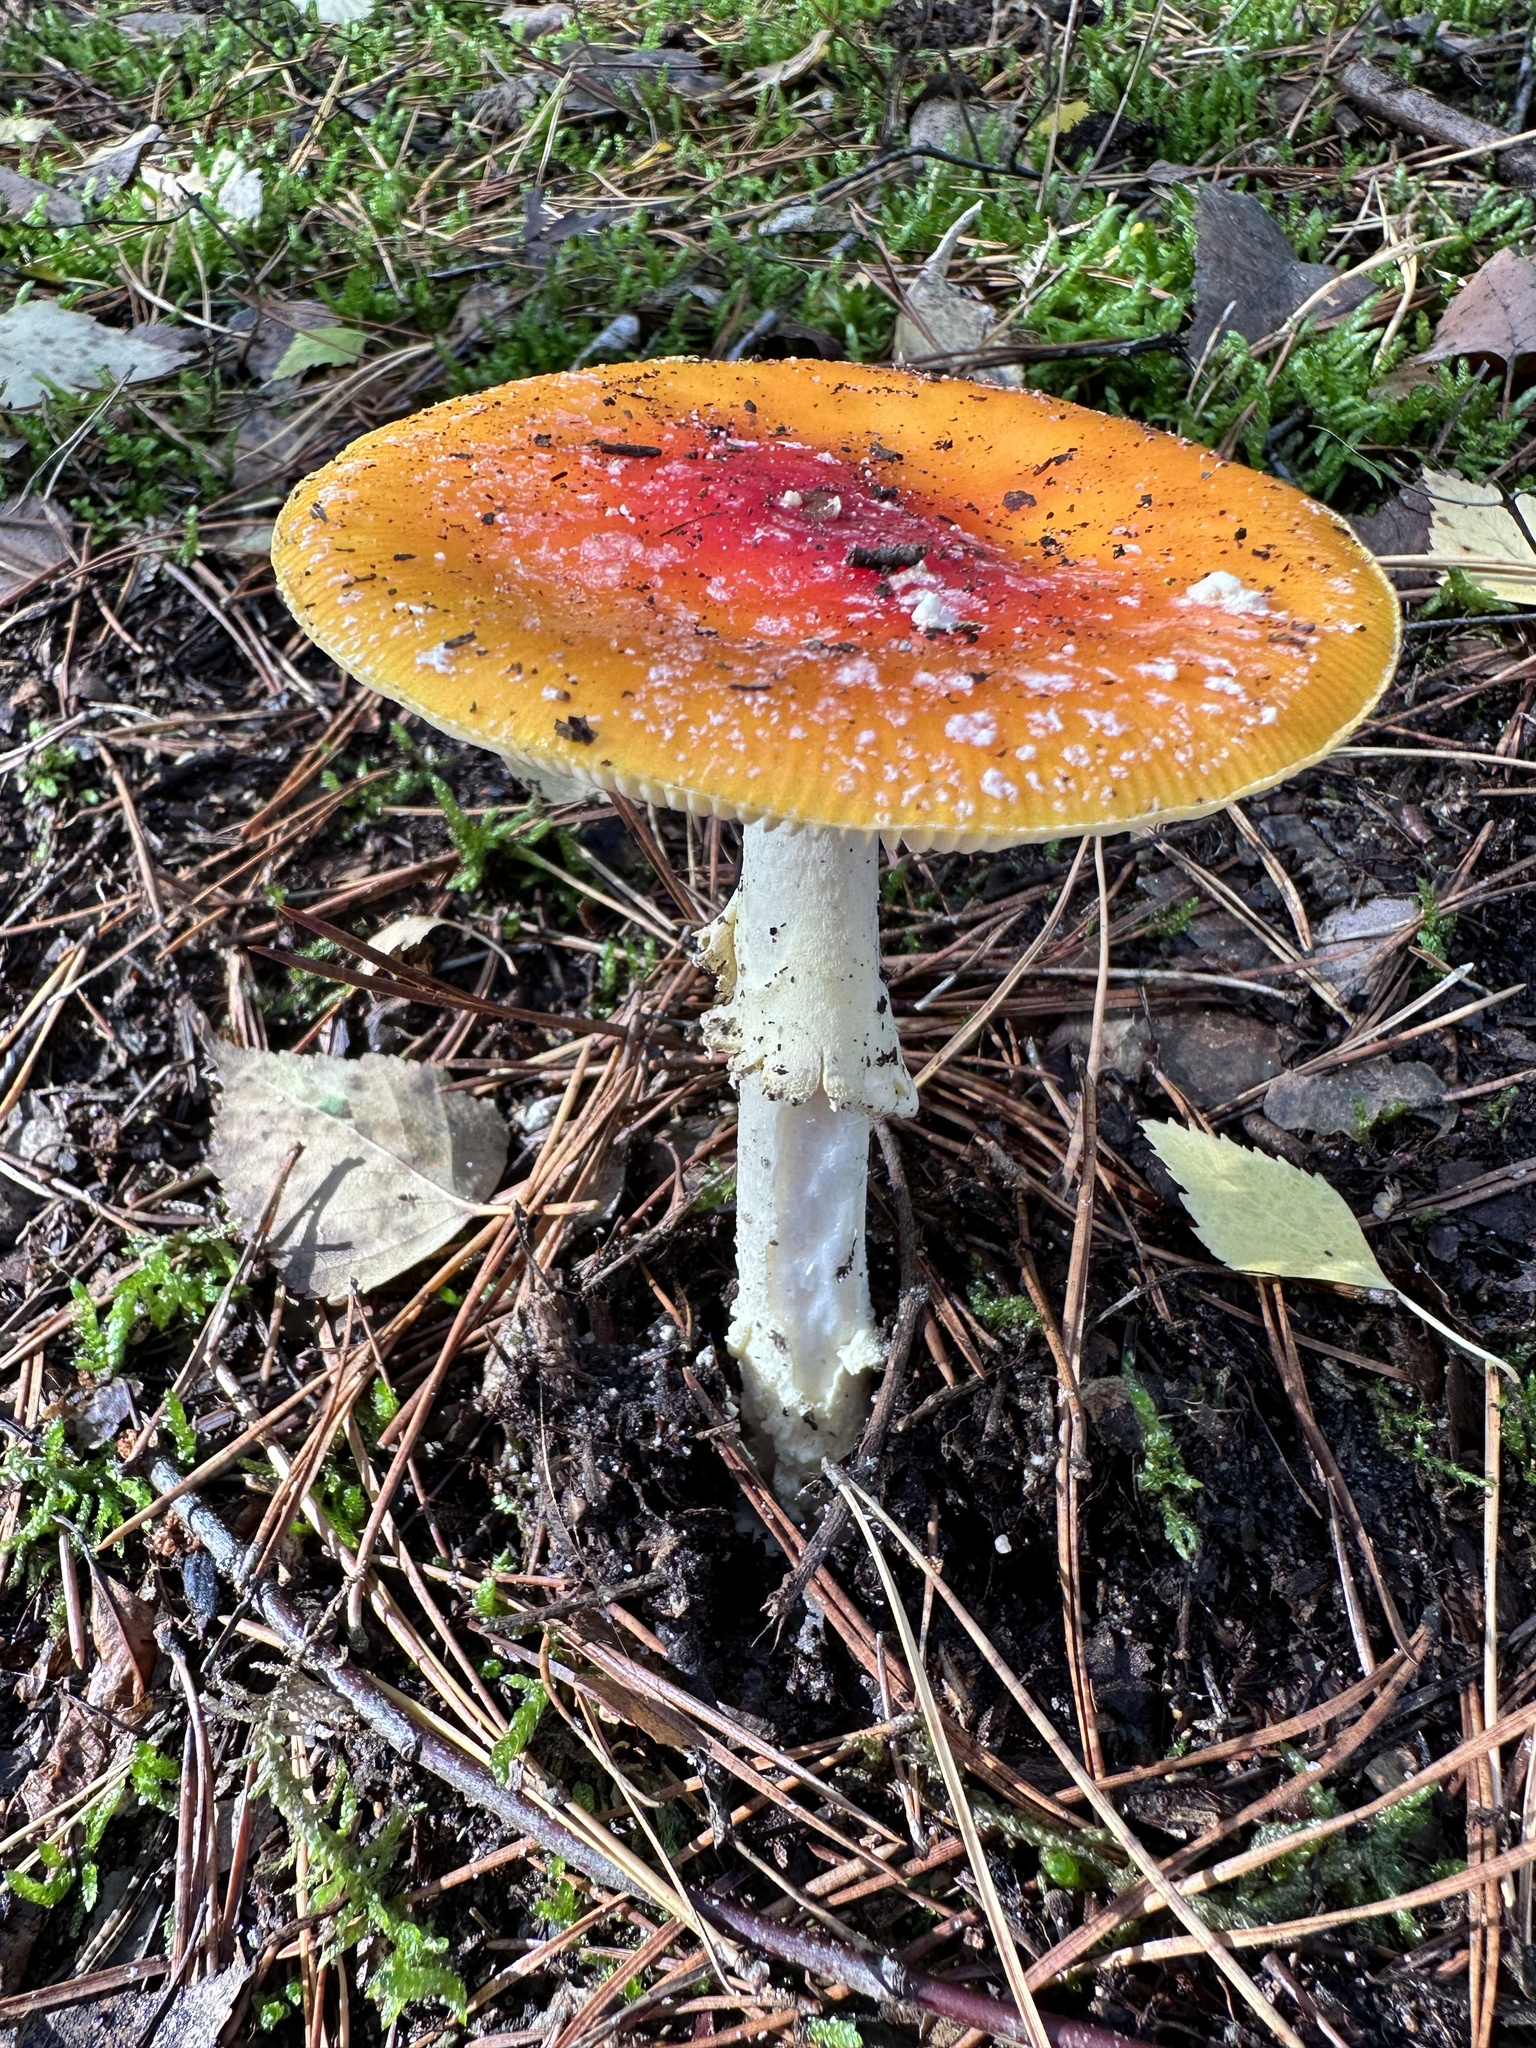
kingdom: Fungi
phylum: Basidiomycota
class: Agaricomycetes
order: Agaricales
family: Amanitaceae
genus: Amanita
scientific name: Amanita muscaria
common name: Fly agaric
